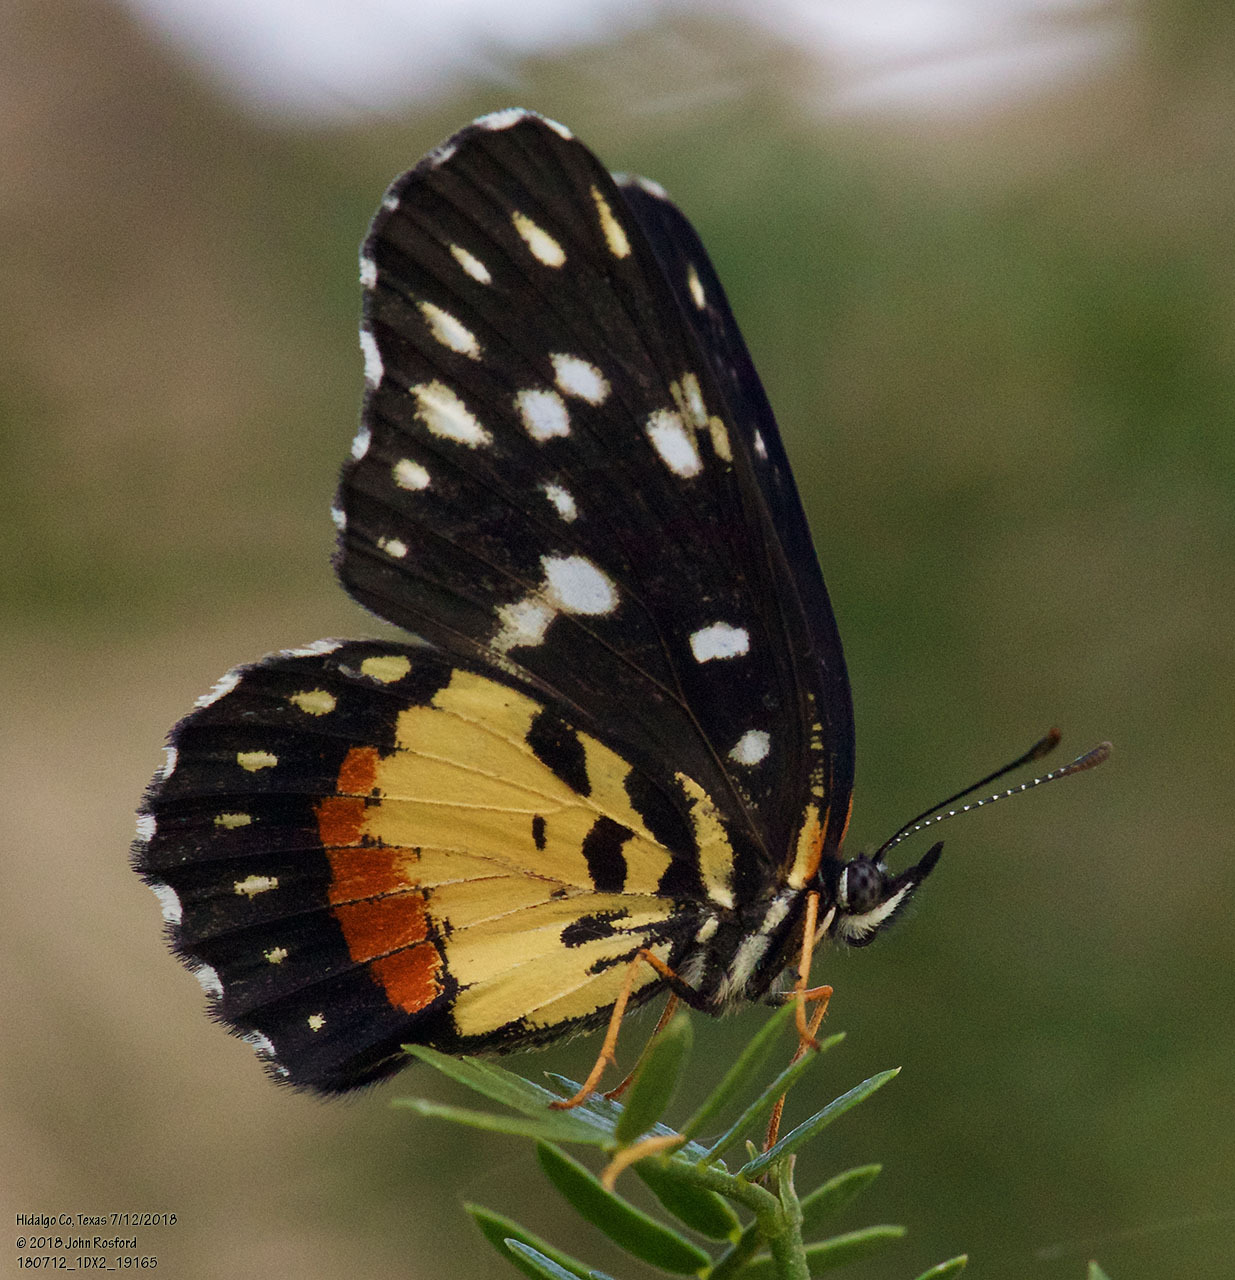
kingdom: Animalia
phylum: Arthropoda
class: Insecta
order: Lepidoptera
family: Nymphalidae
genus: Chlosyne
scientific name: Chlosyne rosita
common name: Rosita patch
